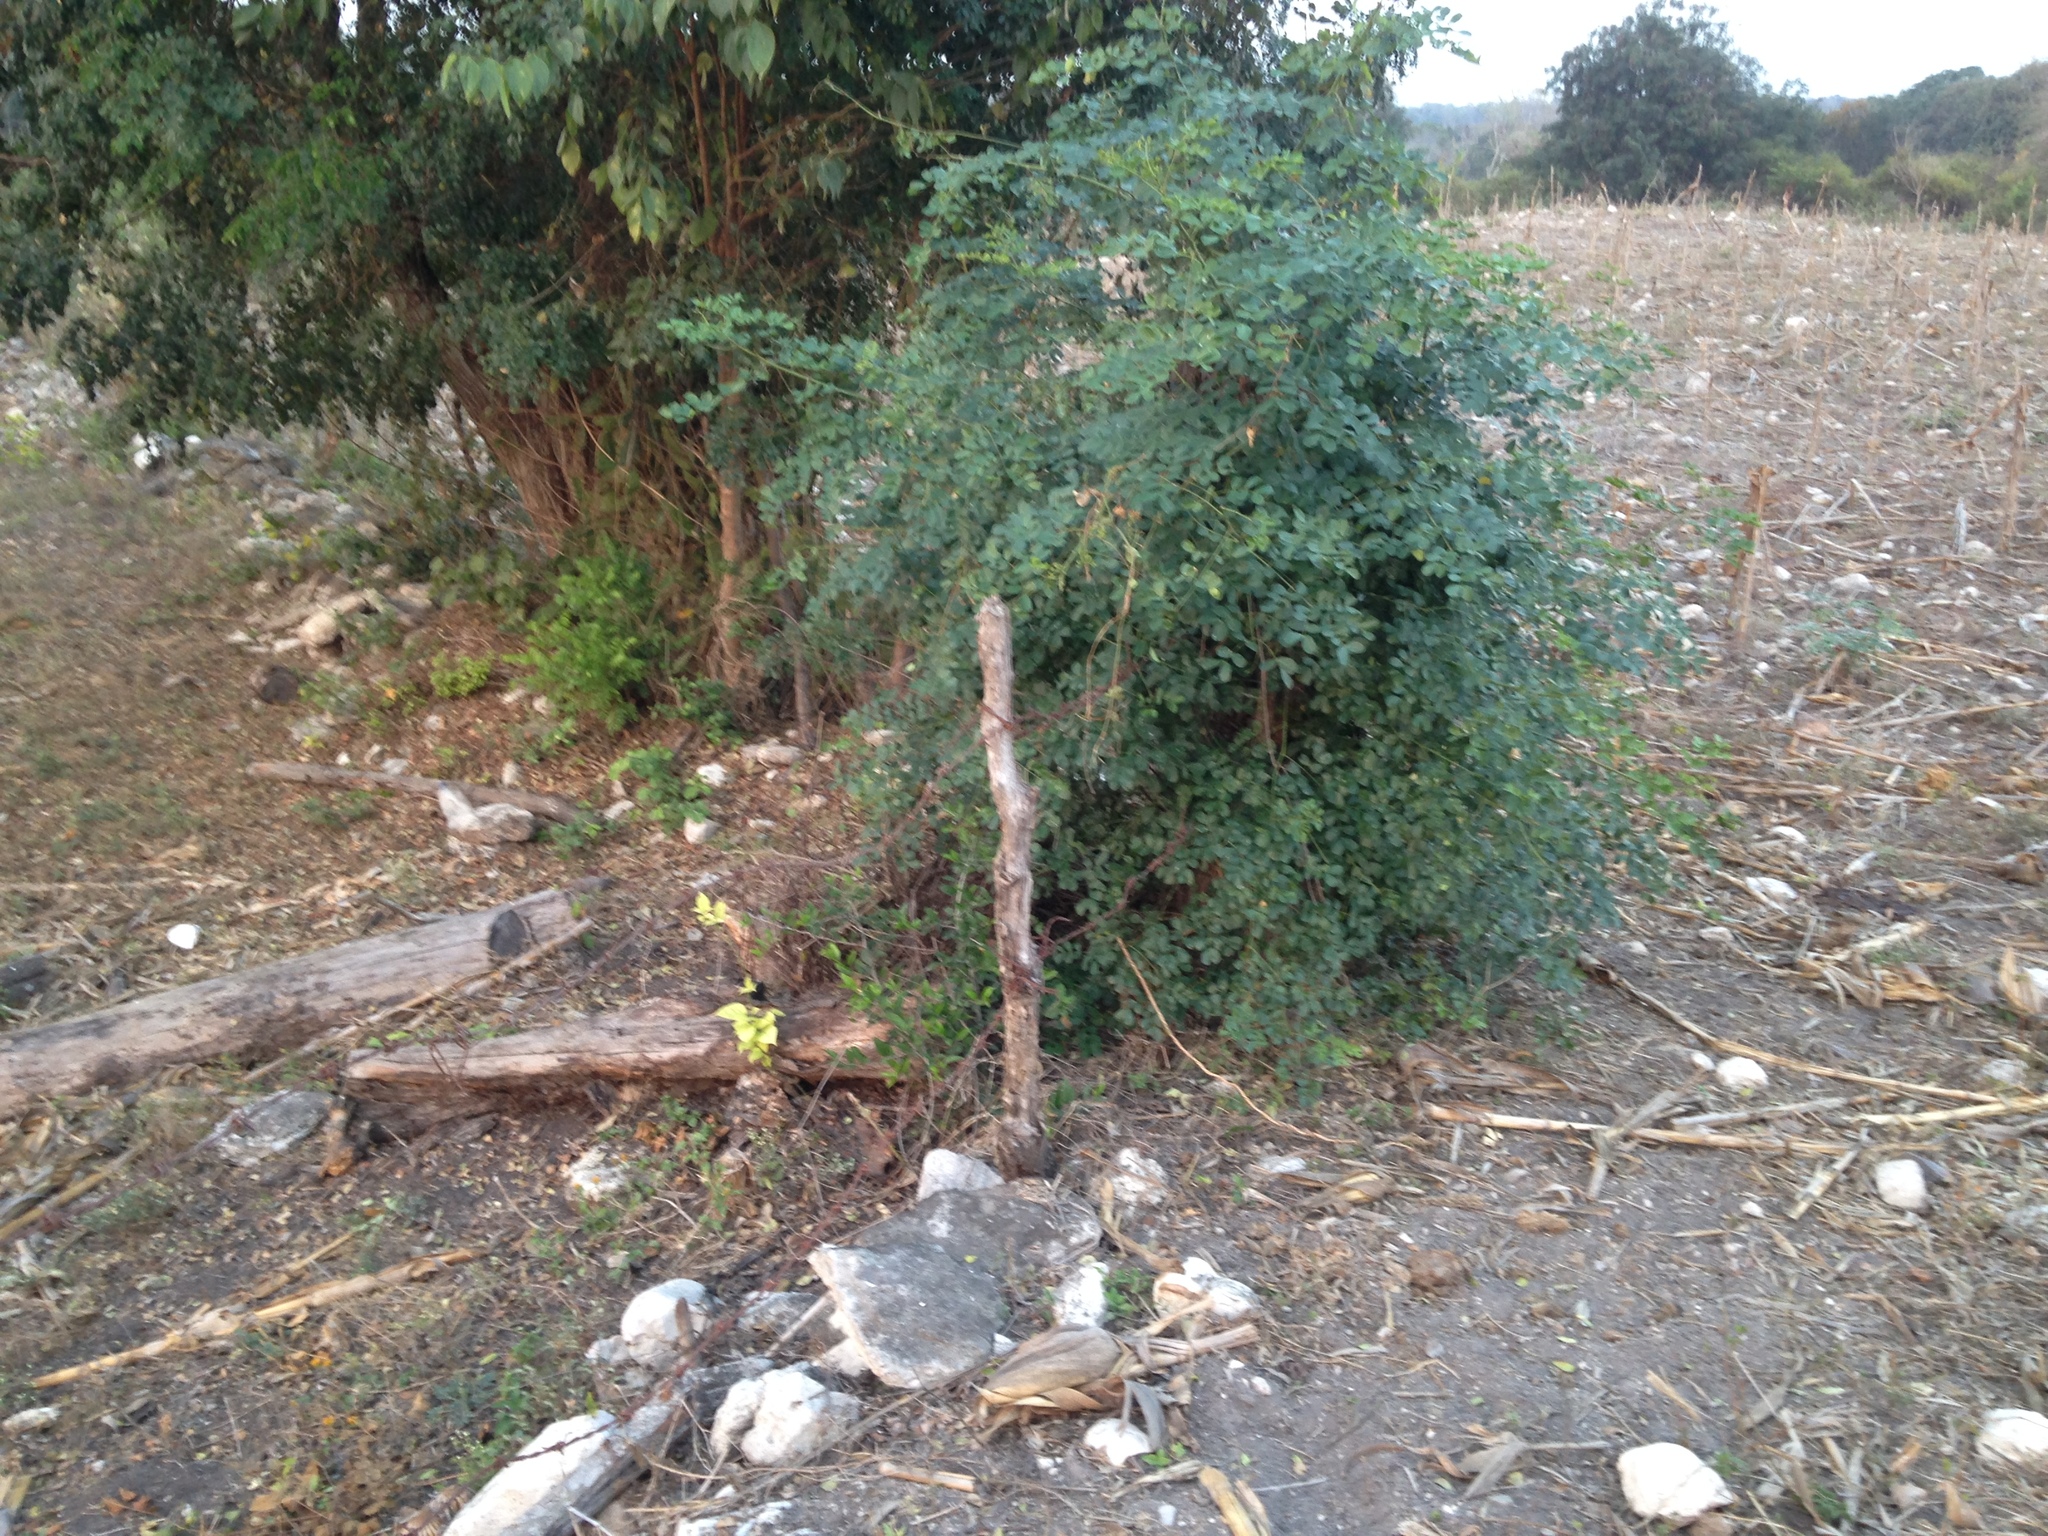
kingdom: Plantae
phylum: Tracheophyta
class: Magnoliopsida
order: Fabales
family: Fabaceae
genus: Tara
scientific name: Tara cacalaco
